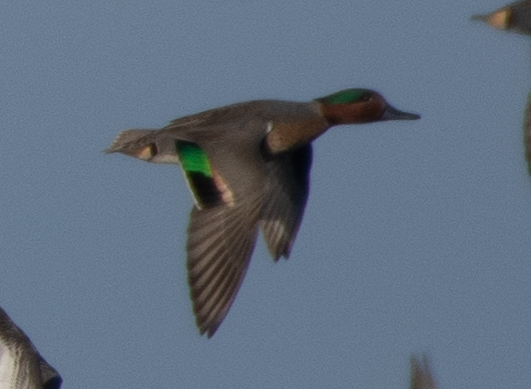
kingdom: Animalia
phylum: Chordata
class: Aves
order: Anseriformes
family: Anatidae
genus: Anas
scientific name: Anas crecca
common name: Eurasian teal
